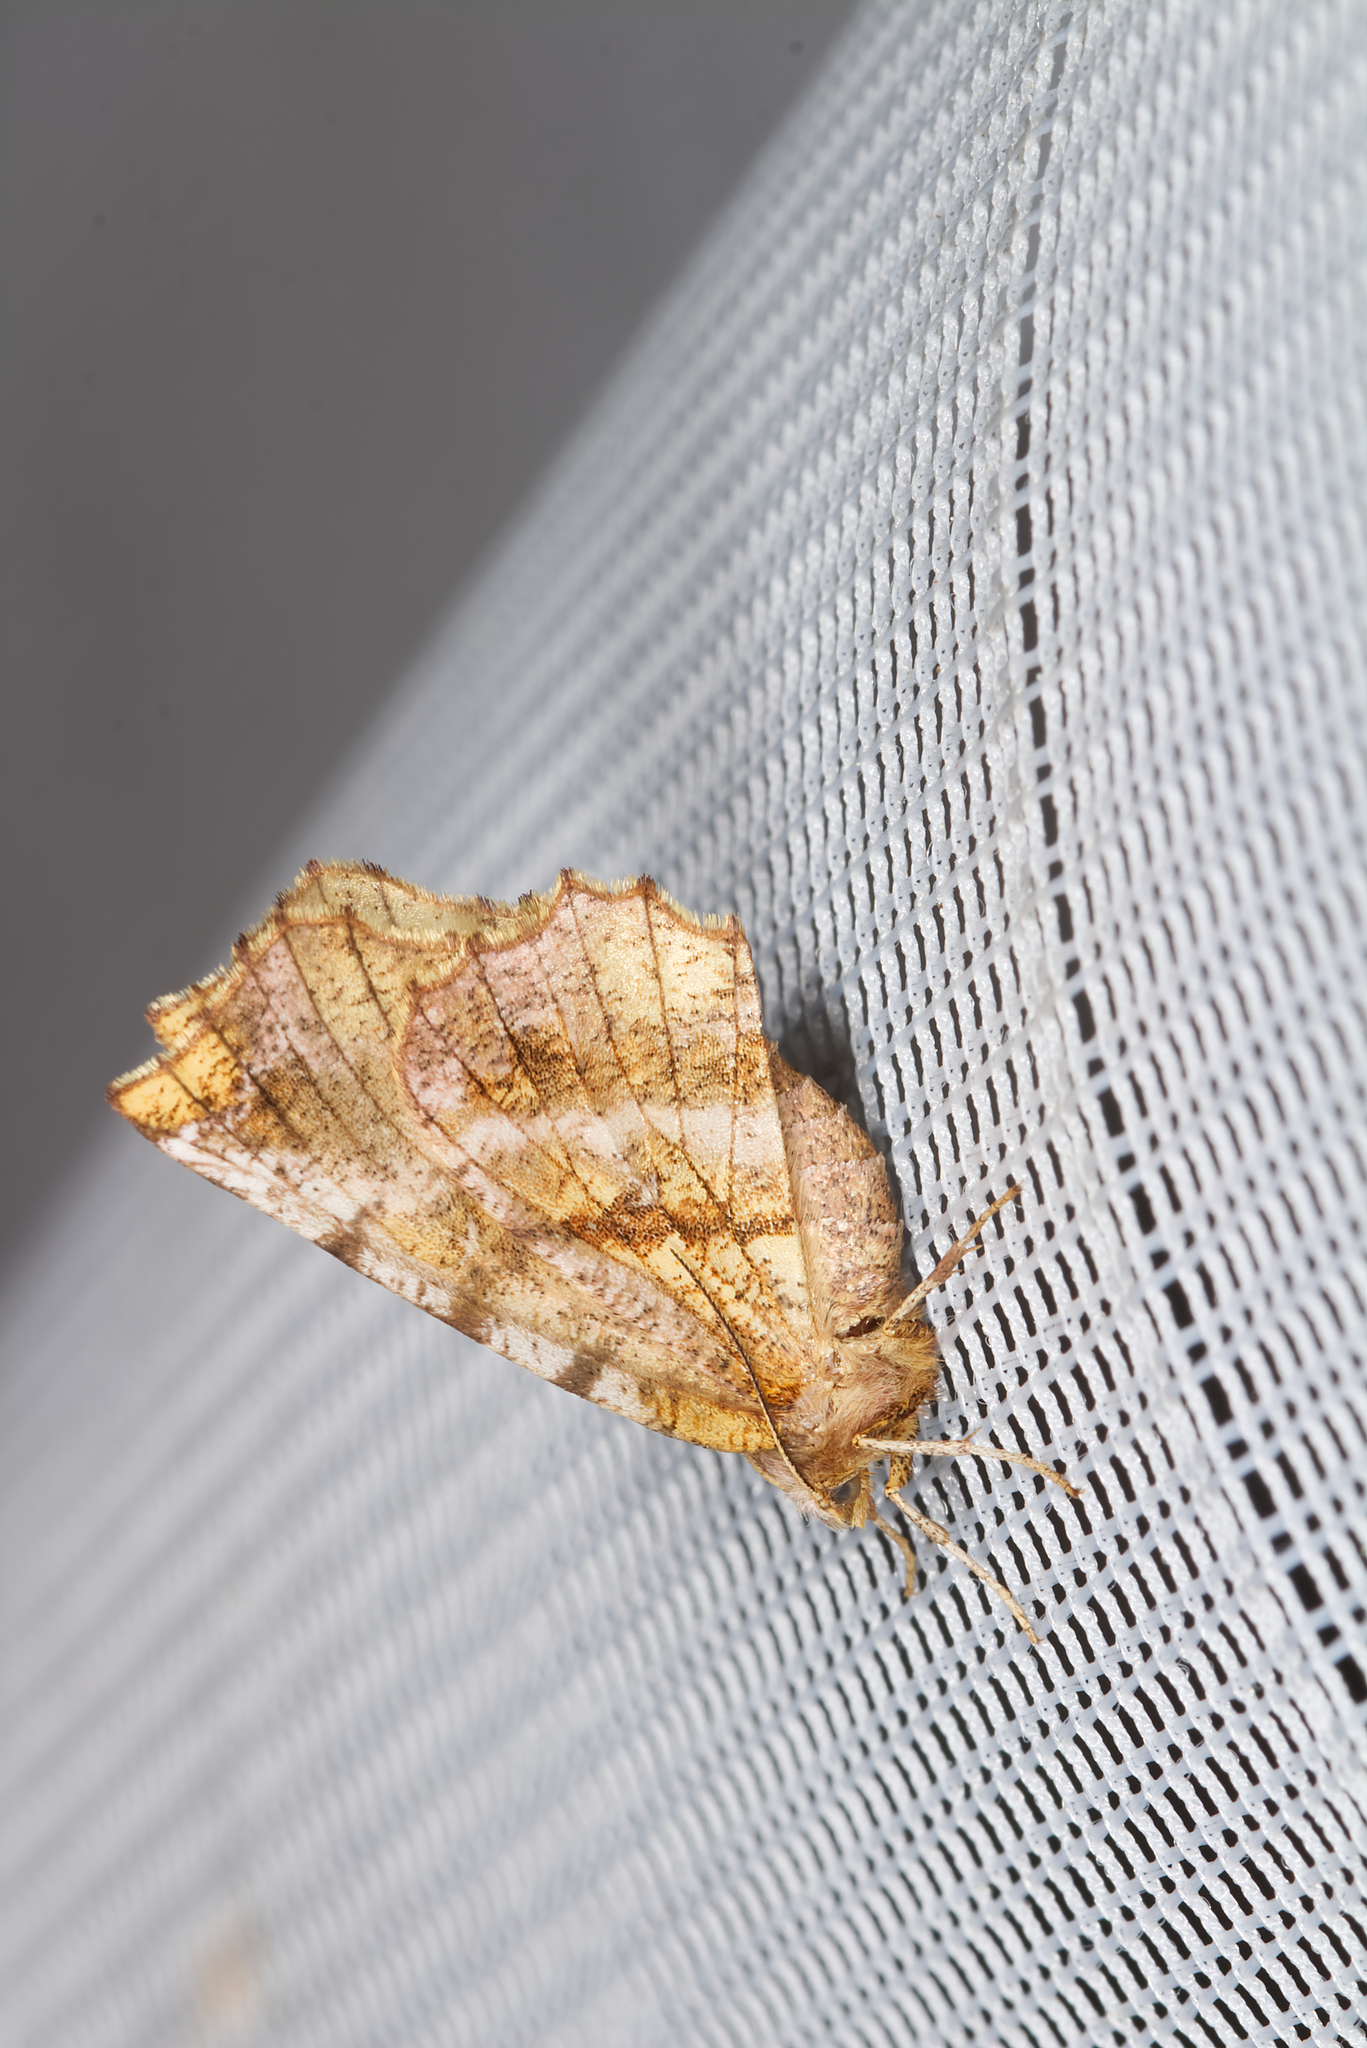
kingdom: Animalia
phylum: Arthropoda
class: Insecta
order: Lepidoptera
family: Geometridae
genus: Selenia
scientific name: Selenia dentaria
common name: Early thorn
